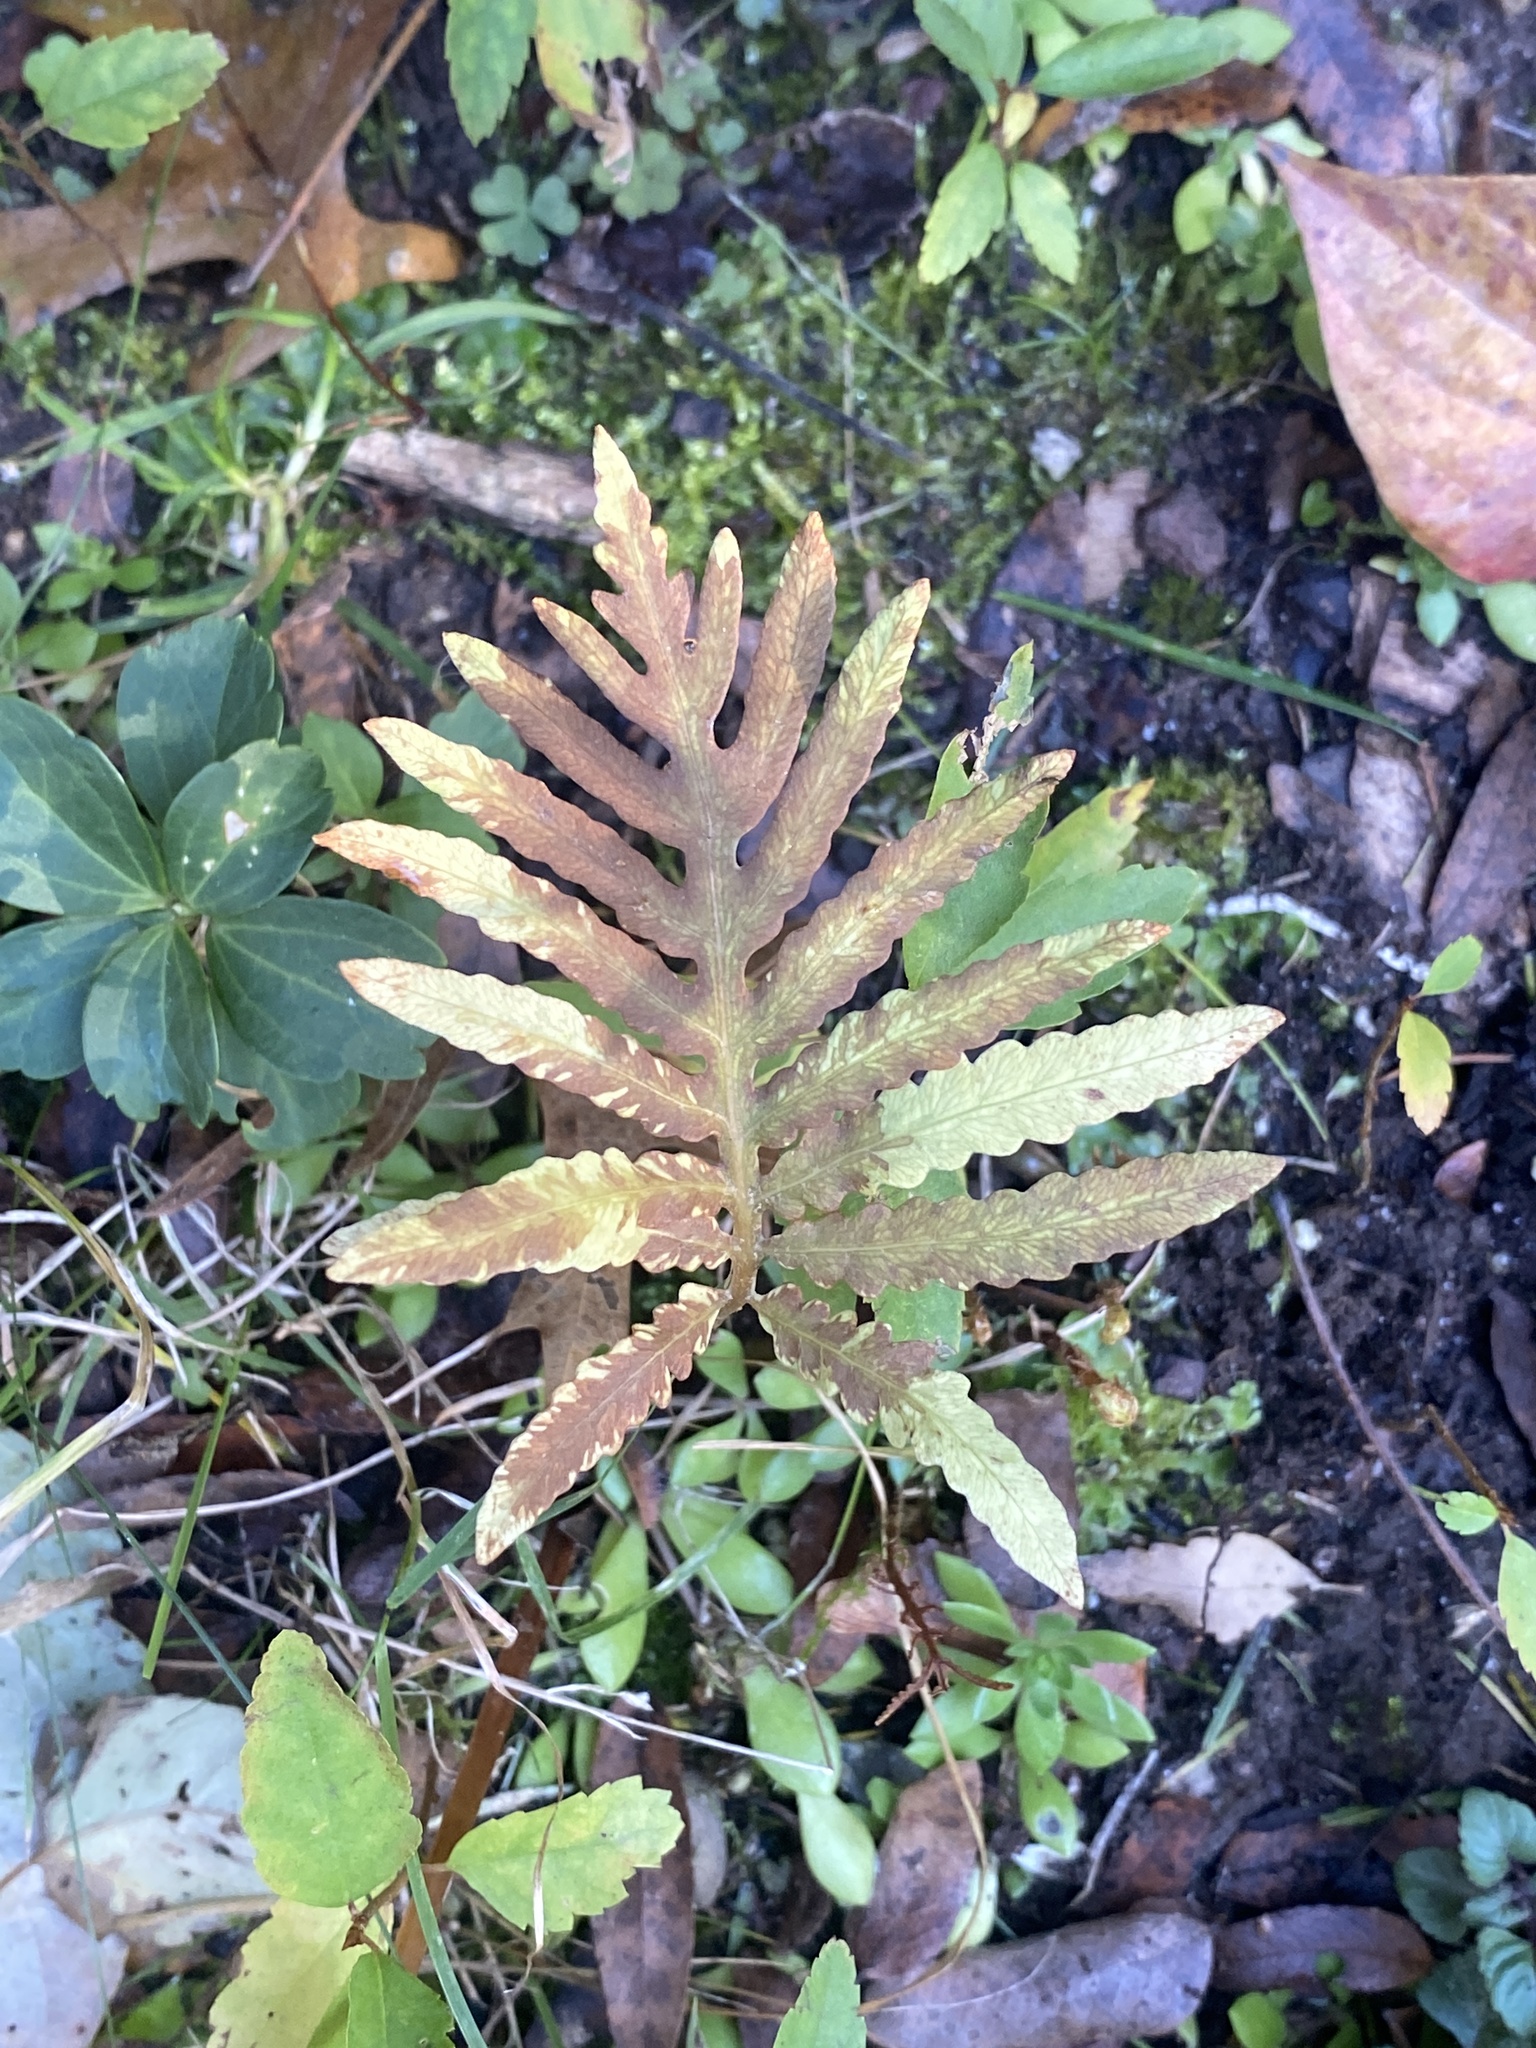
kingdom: Plantae
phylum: Tracheophyta
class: Polypodiopsida
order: Polypodiales
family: Onocleaceae
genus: Onoclea
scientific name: Onoclea sensibilis
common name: Sensitive fern
